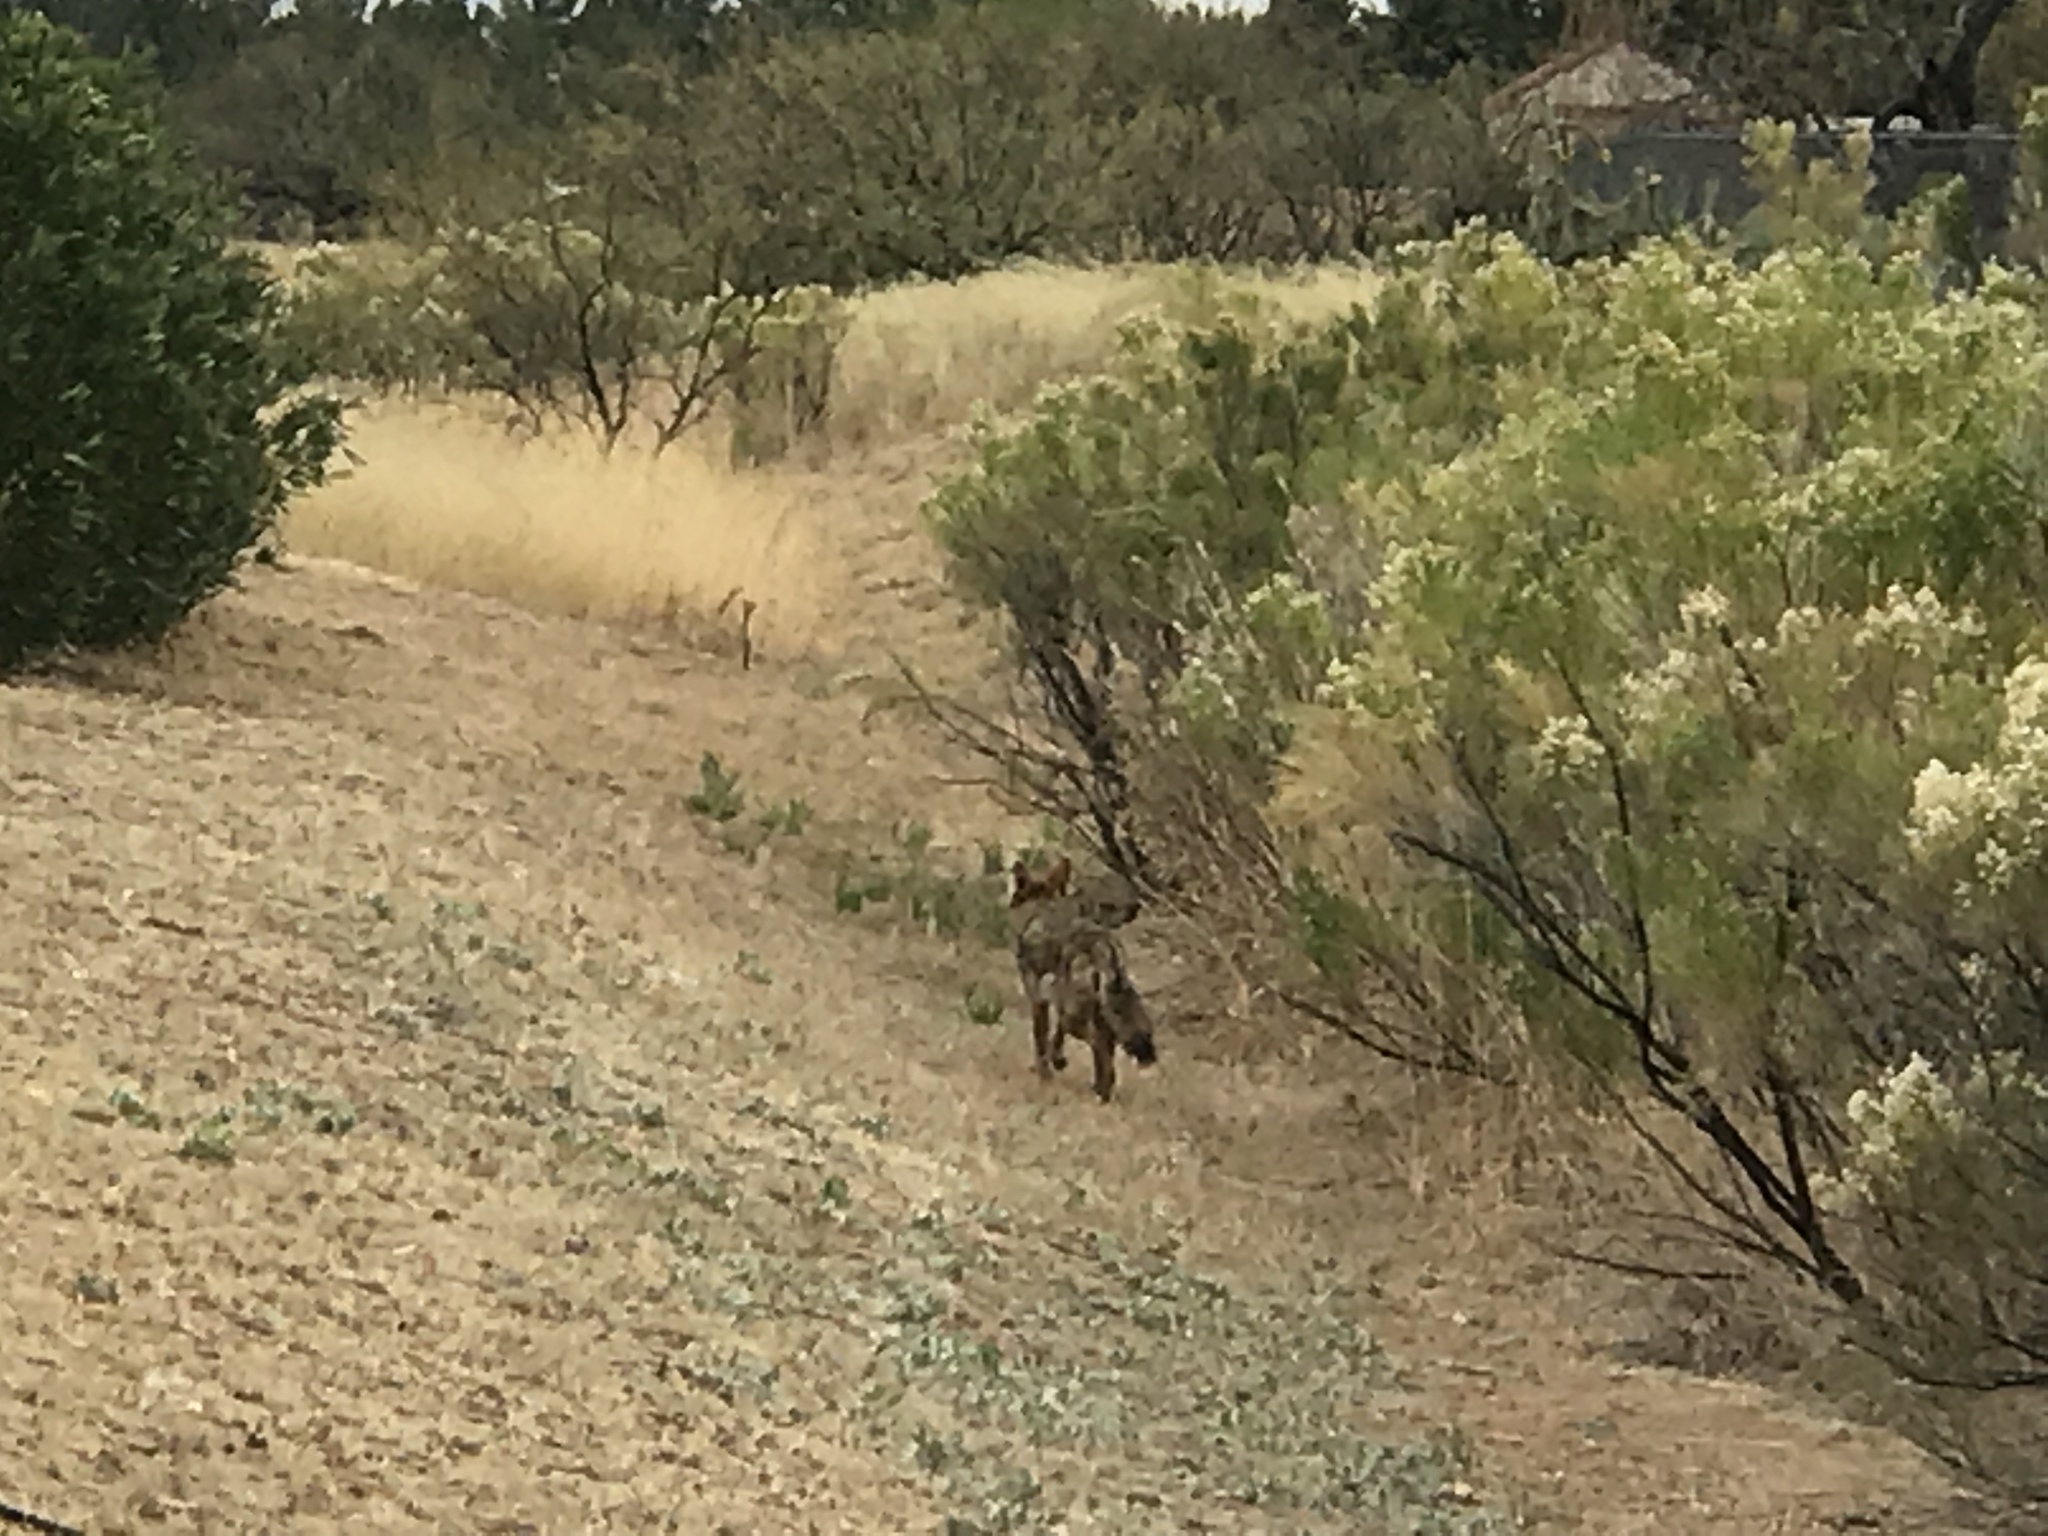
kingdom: Animalia
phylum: Chordata
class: Mammalia
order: Carnivora
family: Canidae
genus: Canis
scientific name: Canis latrans
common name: Coyote
